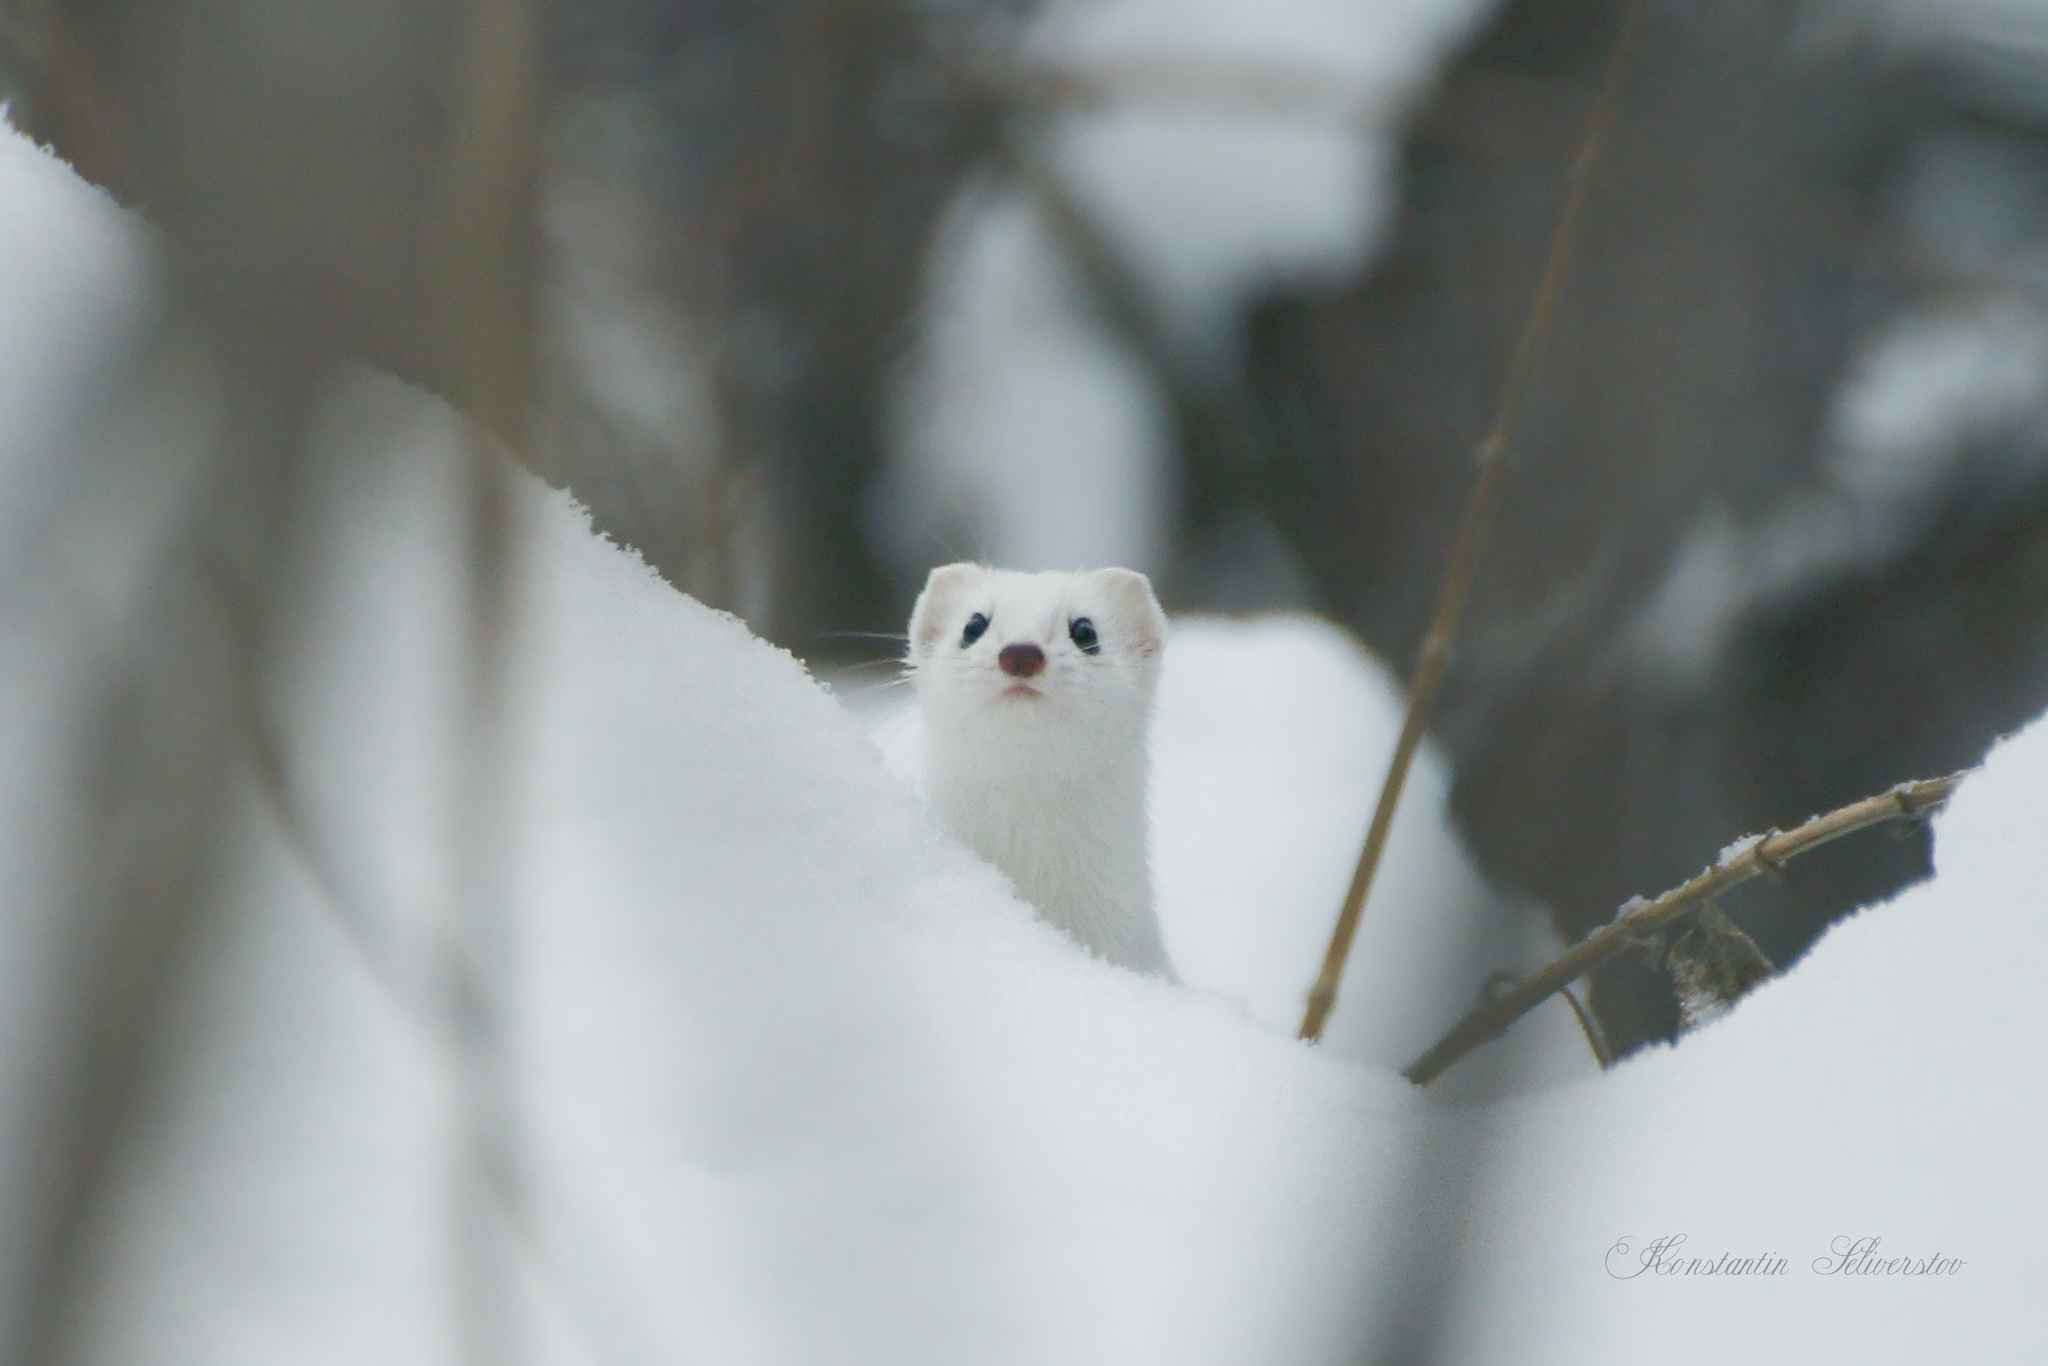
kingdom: Animalia
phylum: Chordata
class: Mammalia
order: Carnivora
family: Mustelidae
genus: Mustela
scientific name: Mustela
